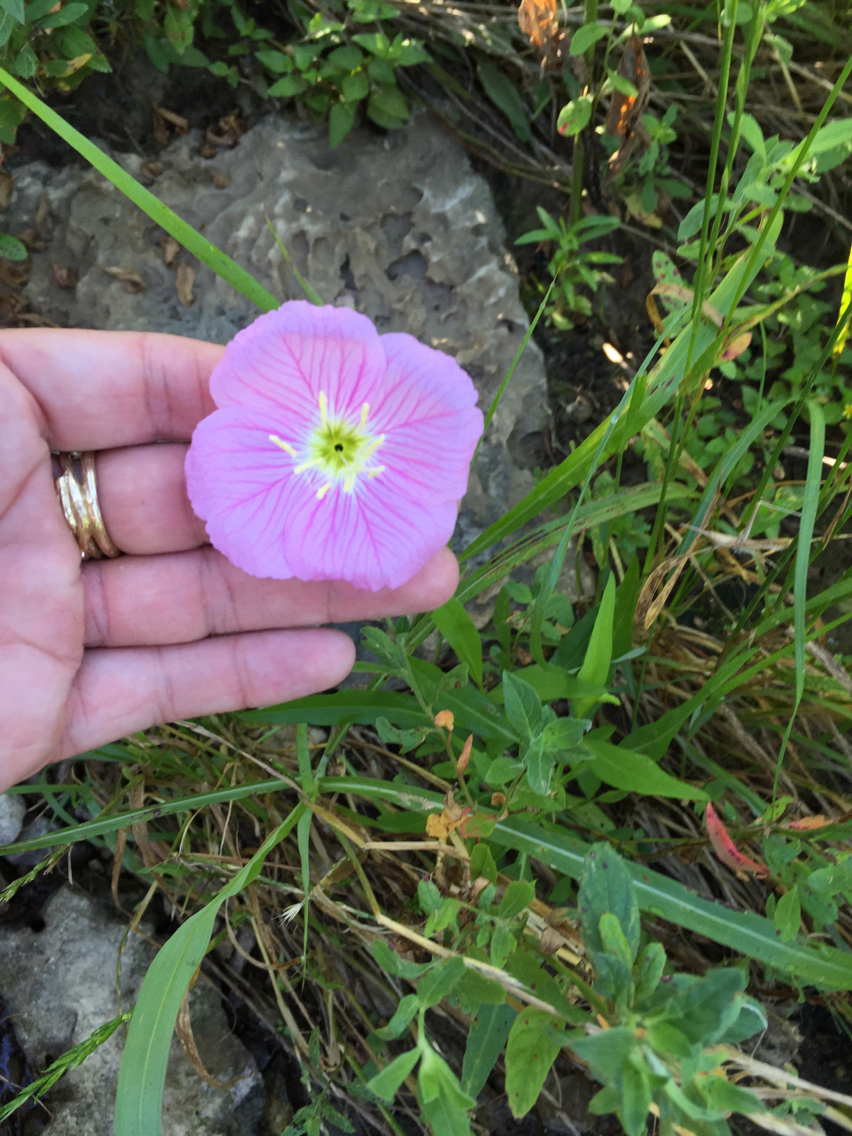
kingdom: Plantae
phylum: Tracheophyta
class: Magnoliopsida
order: Myrtales
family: Onagraceae
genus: Oenothera
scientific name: Oenothera speciosa
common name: White evening-primrose
